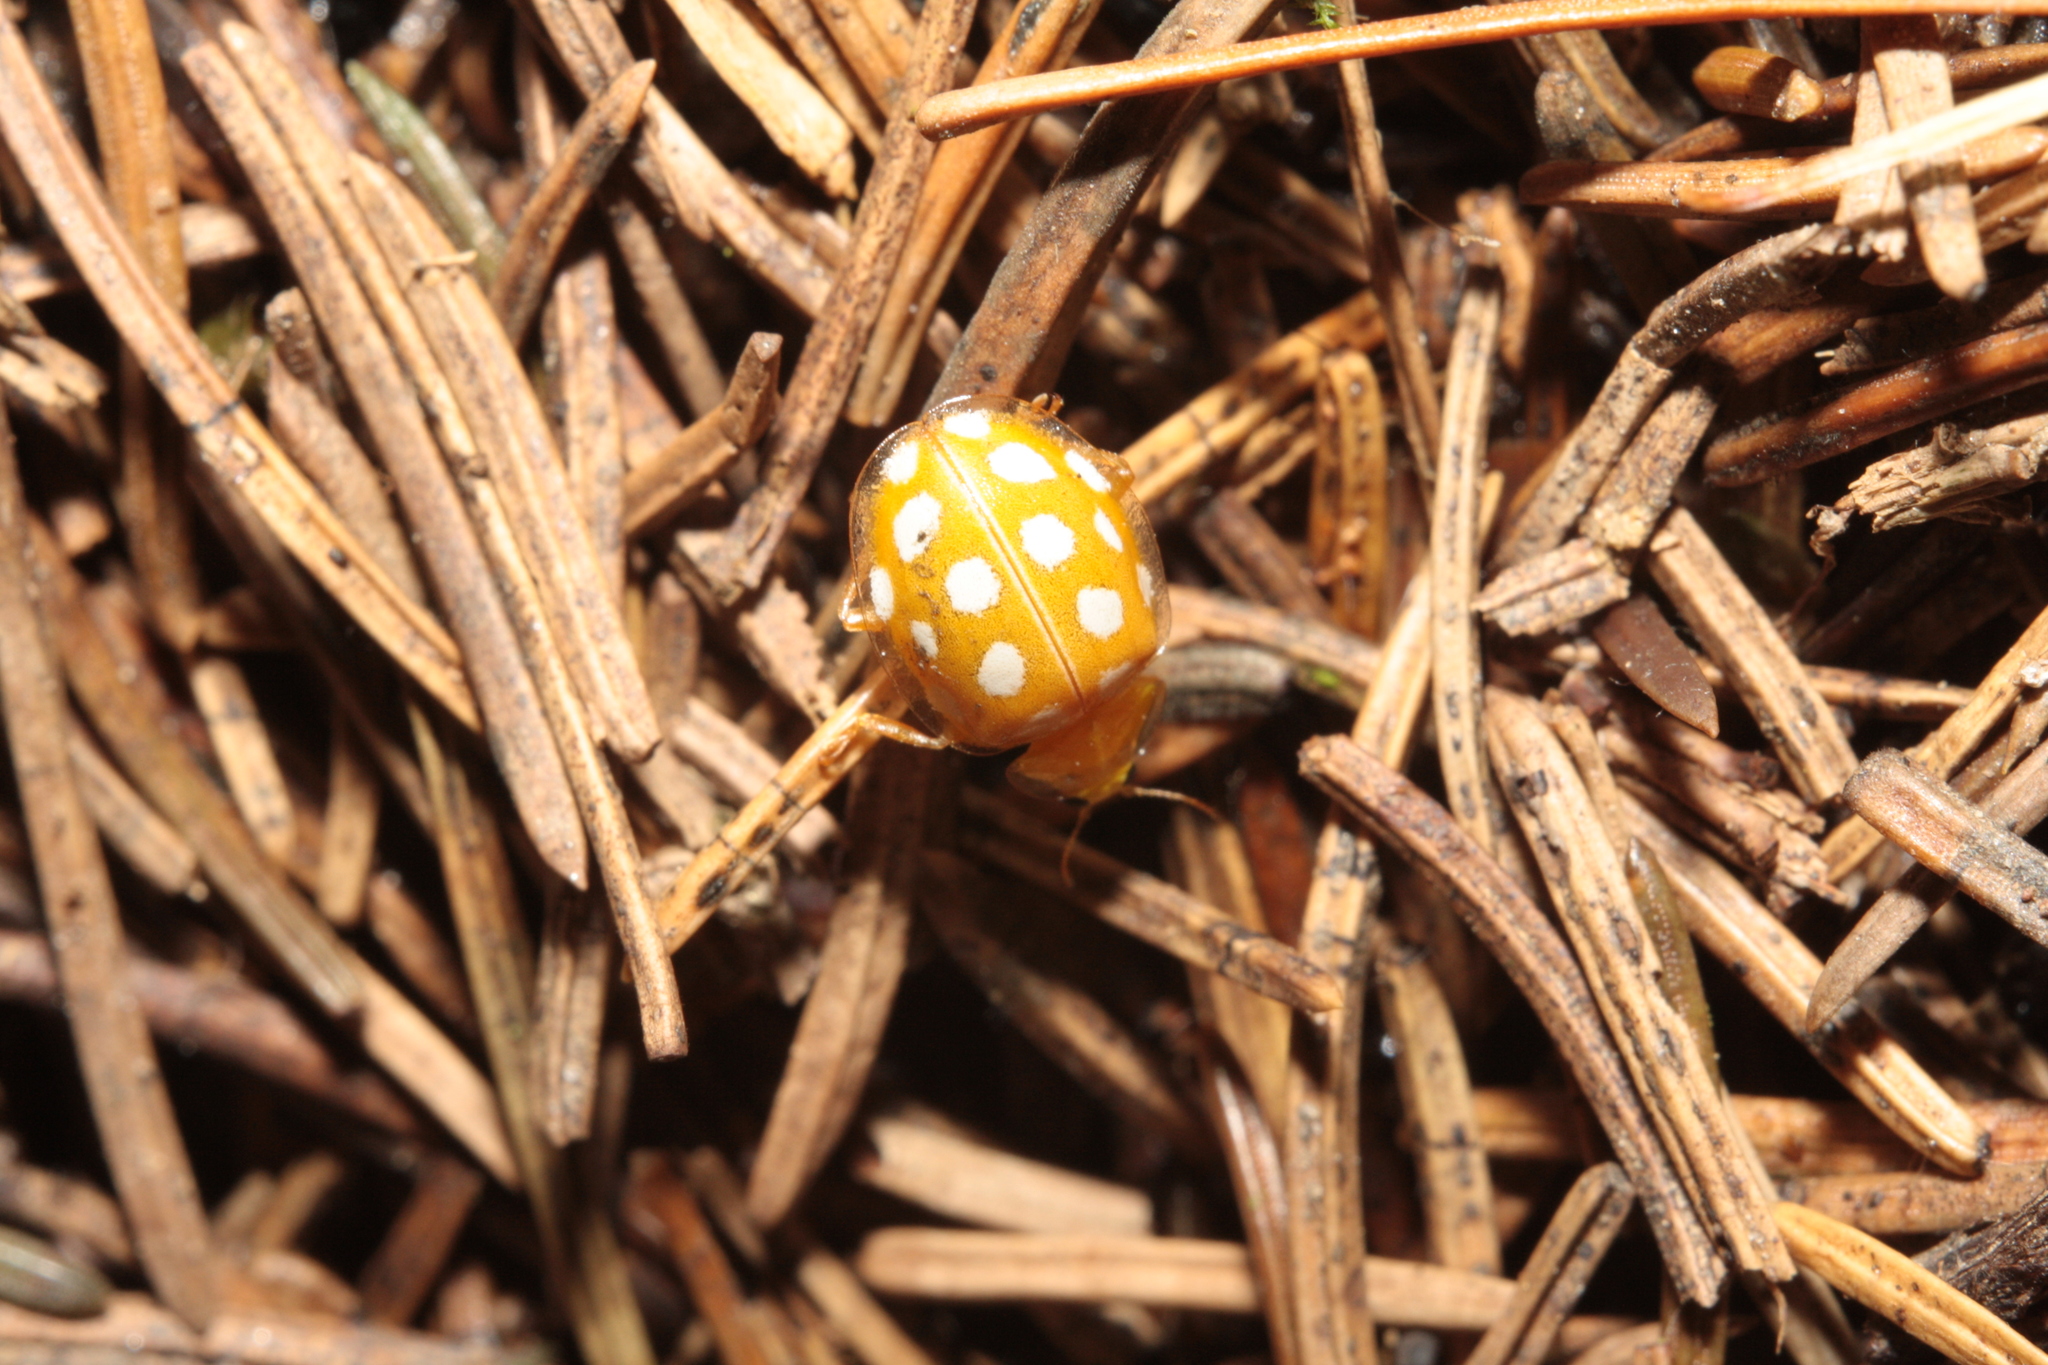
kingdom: Animalia
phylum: Arthropoda
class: Insecta
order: Coleoptera
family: Coccinellidae
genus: Halyzia
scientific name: Halyzia sedecimguttata
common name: Orange ladybird
